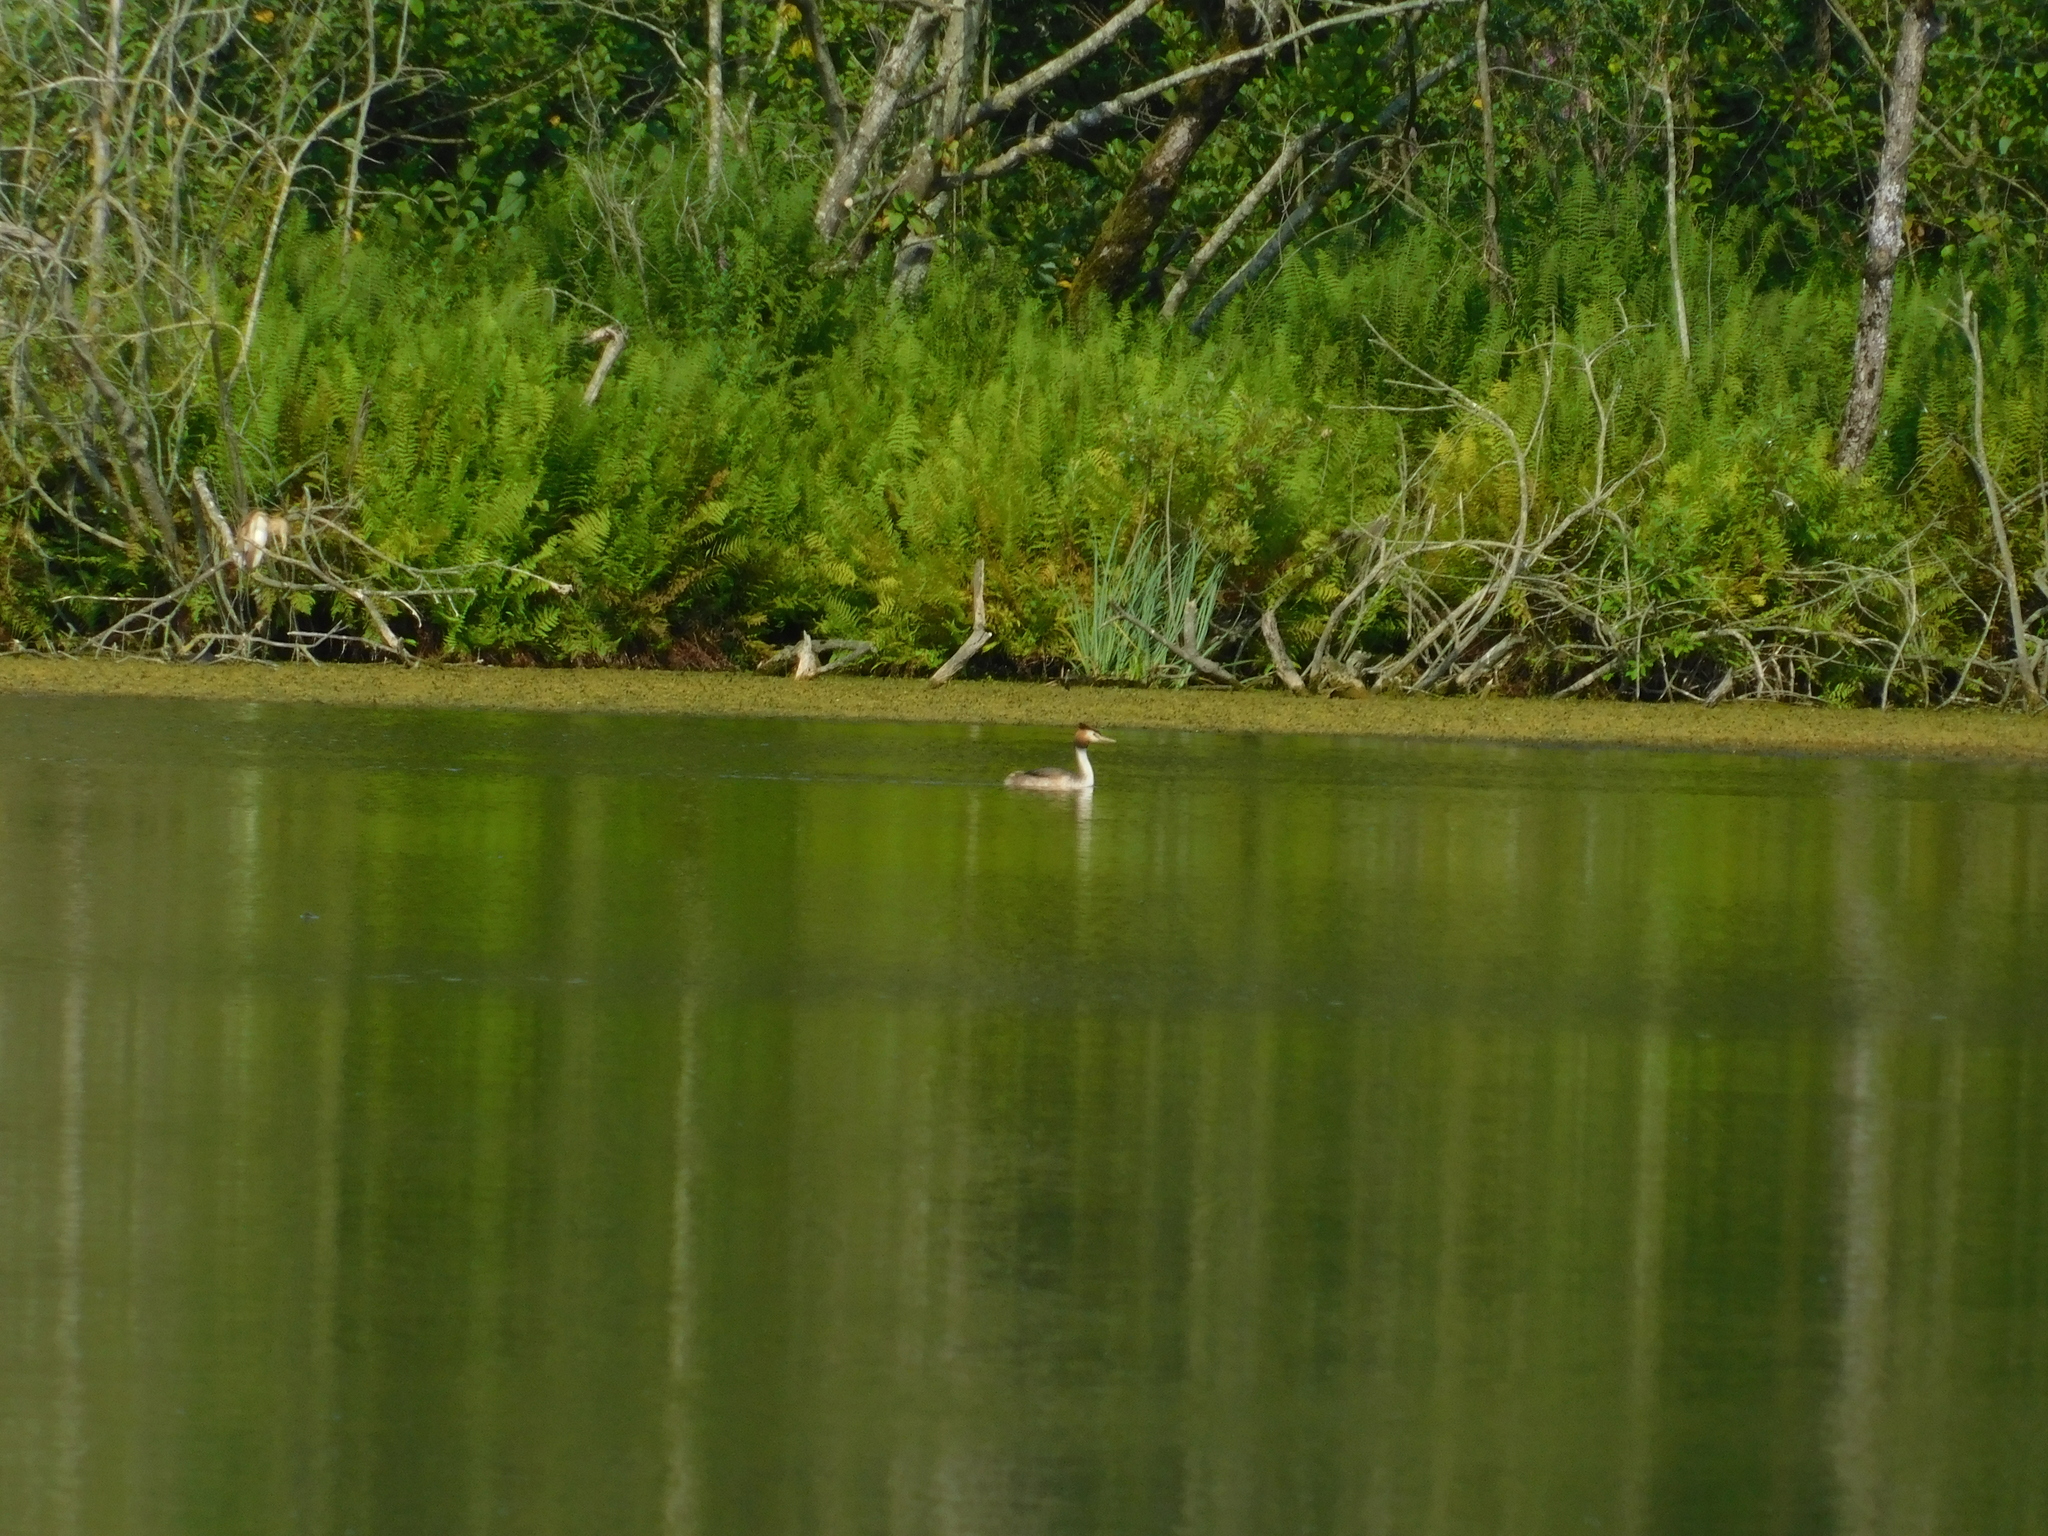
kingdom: Animalia
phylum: Chordata
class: Aves
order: Podicipediformes
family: Podicipedidae
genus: Podiceps
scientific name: Podiceps cristatus
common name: Great crested grebe
